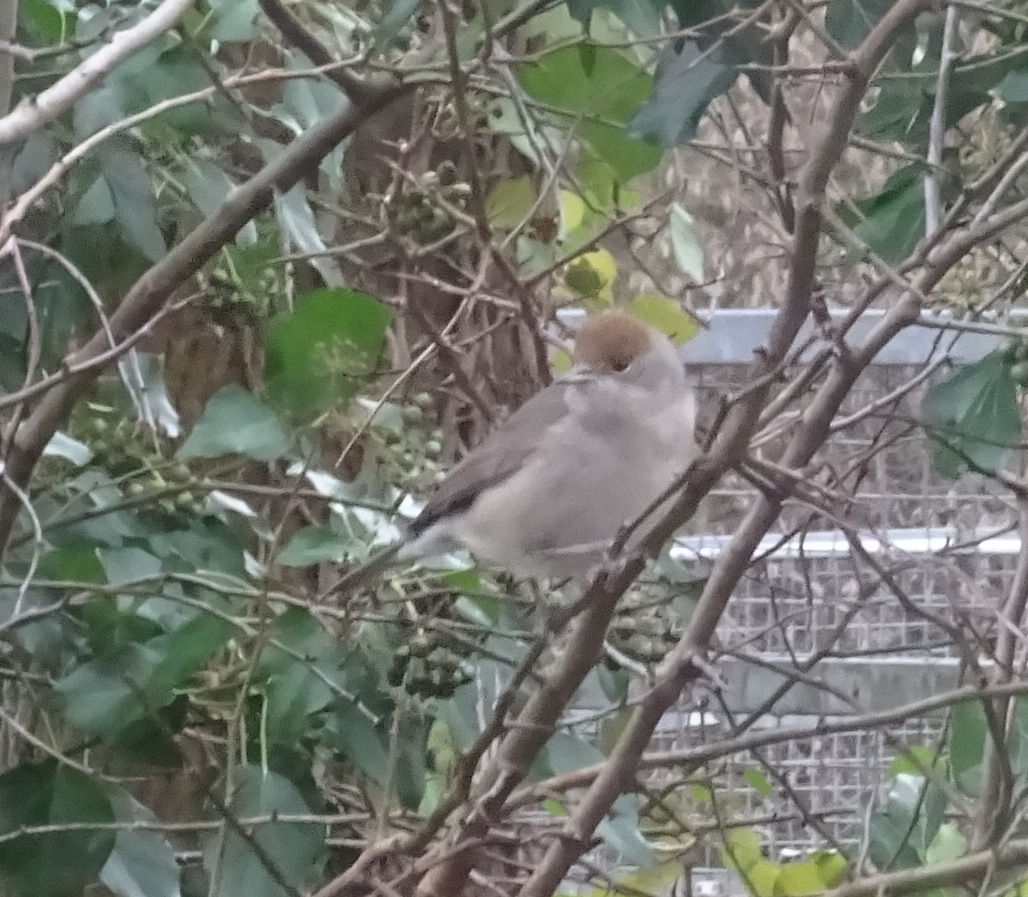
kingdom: Animalia
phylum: Chordata
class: Aves
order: Passeriformes
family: Sylviidae
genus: Sylvia
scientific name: Sylvia atricapilla
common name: Eurasian blackcap
